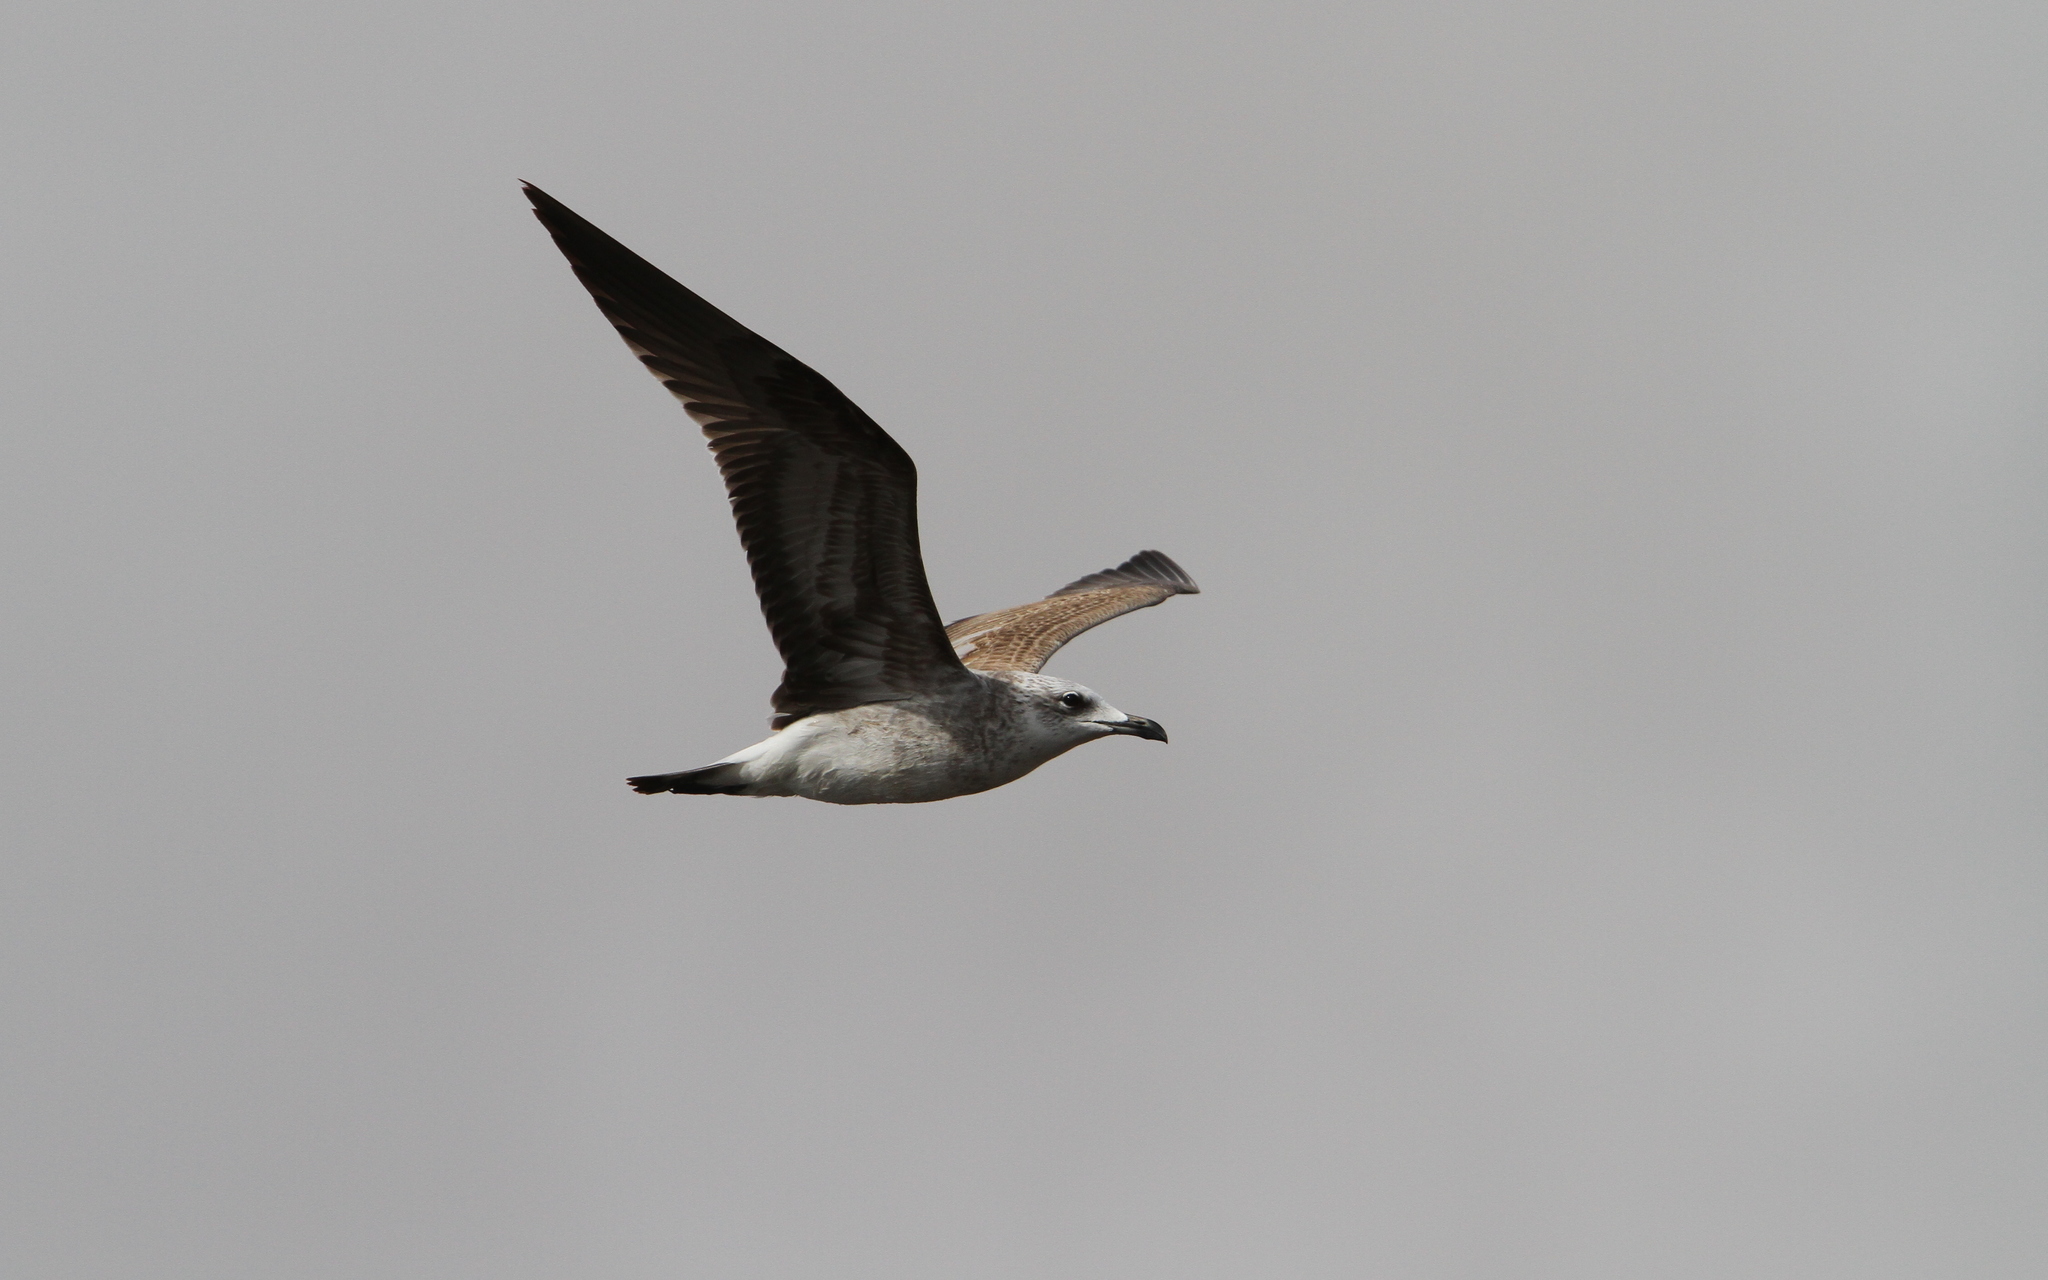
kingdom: Animalia
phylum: Chordata
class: Aves
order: Charadriiformes
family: Laridae
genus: Ichthyaetus
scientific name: Ichthyaetus audouinii
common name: Audouin's gull
